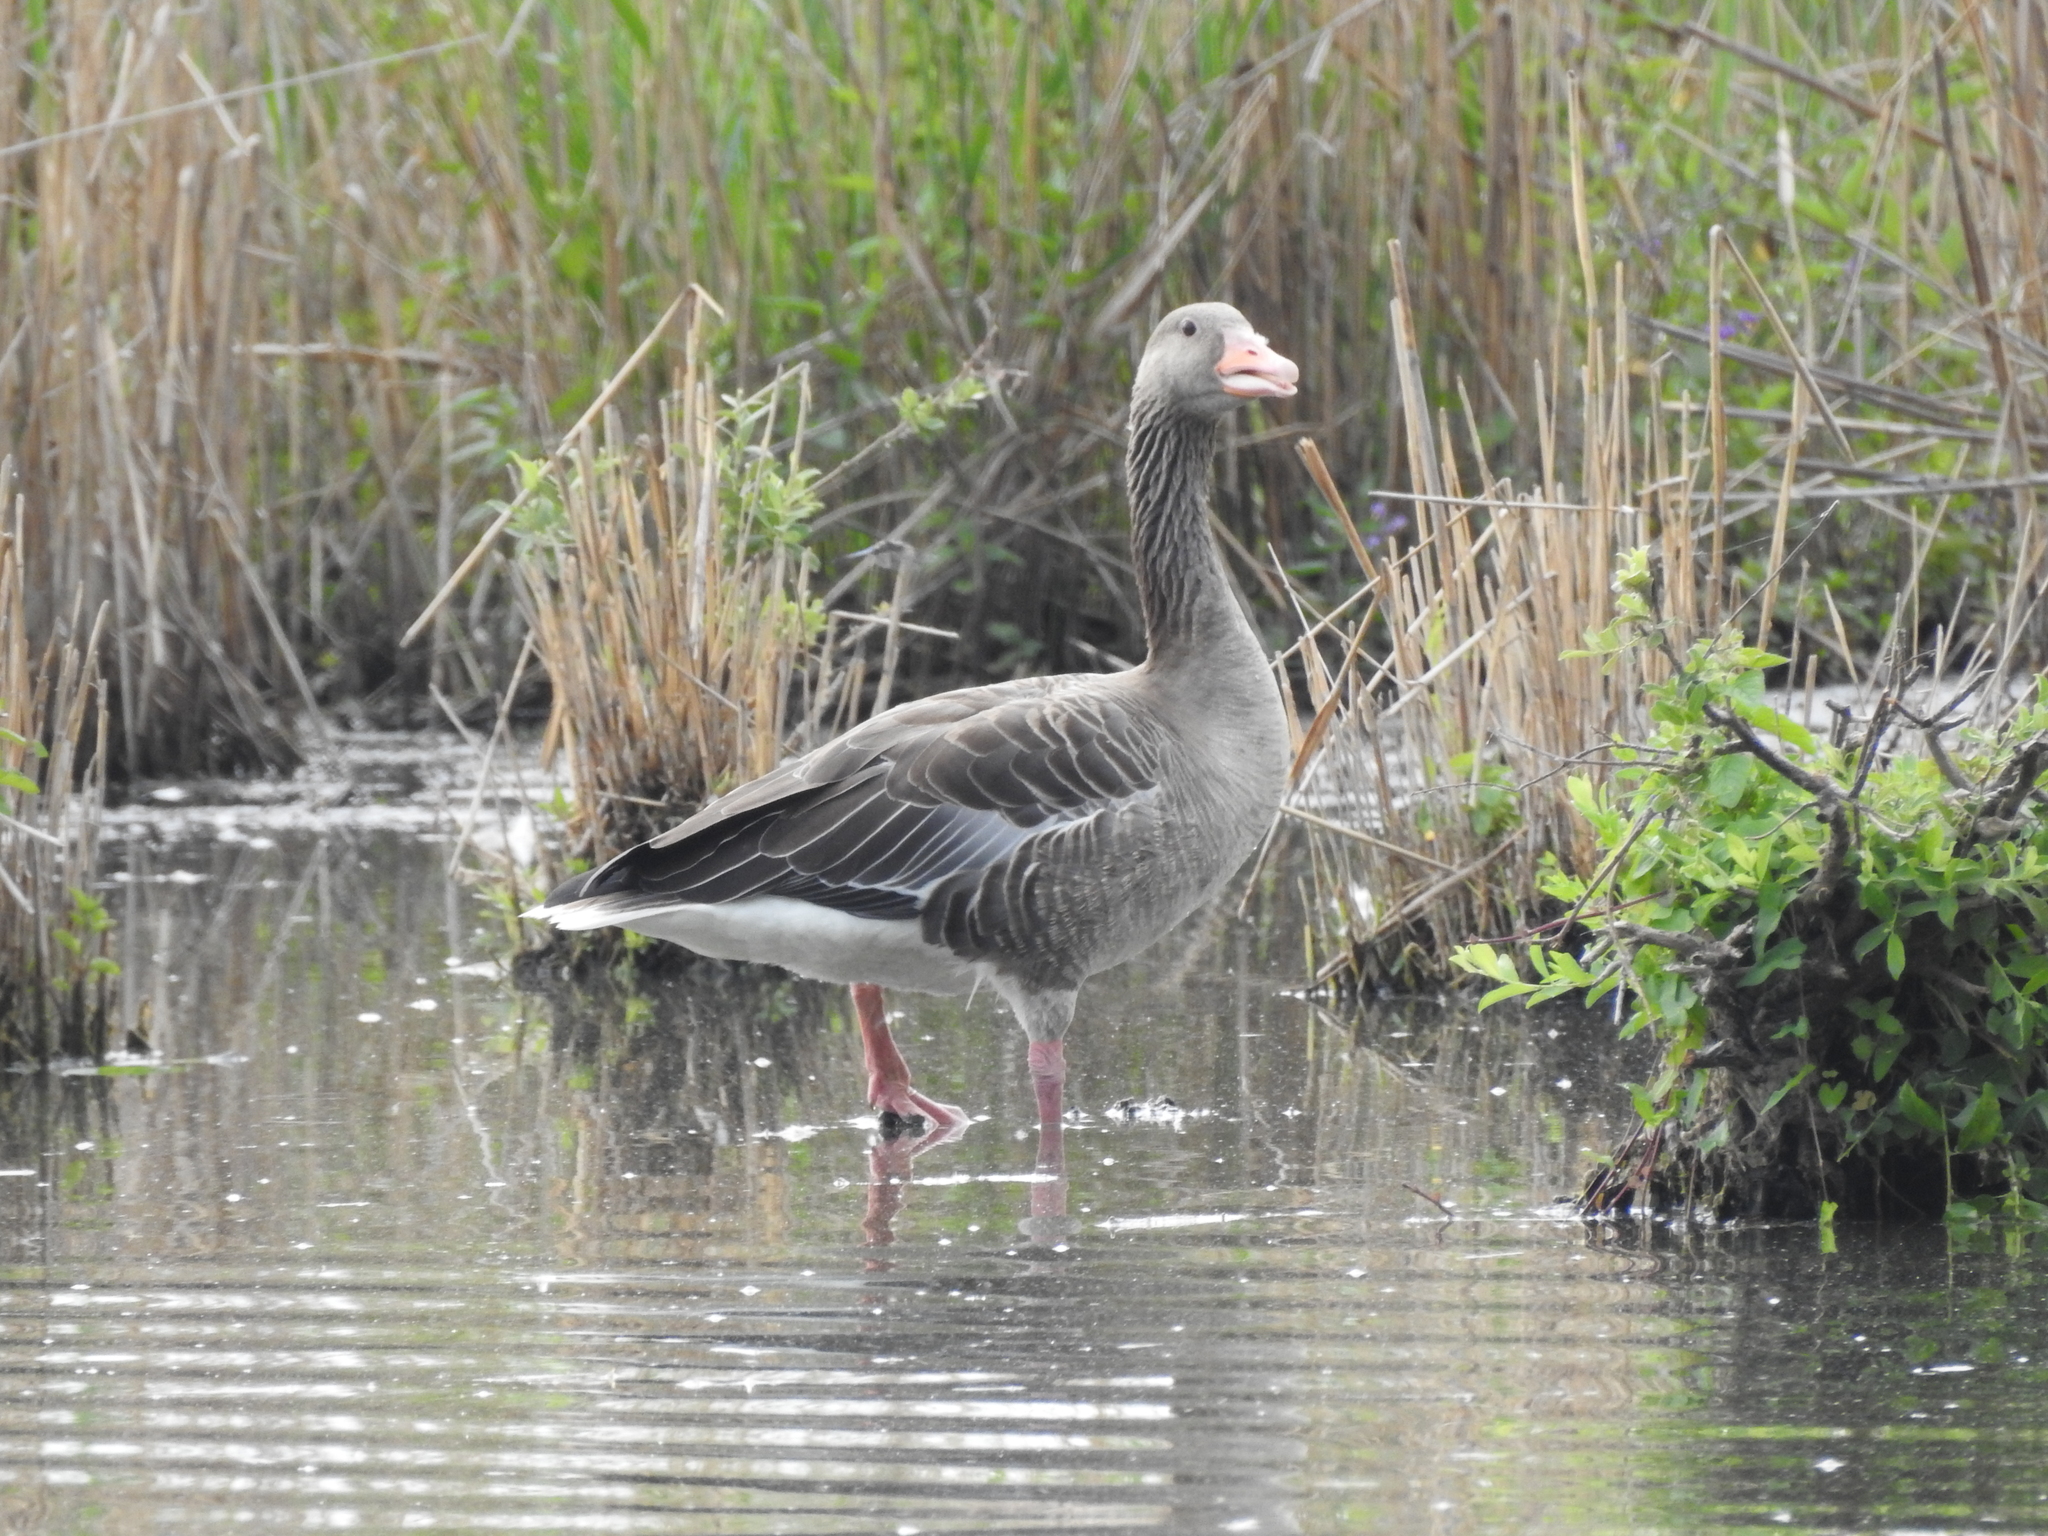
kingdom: Animalia
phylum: Chordata
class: Aves
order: Anseriformes
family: Anatidae
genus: Anser
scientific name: Anser anser
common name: Greylag goose
